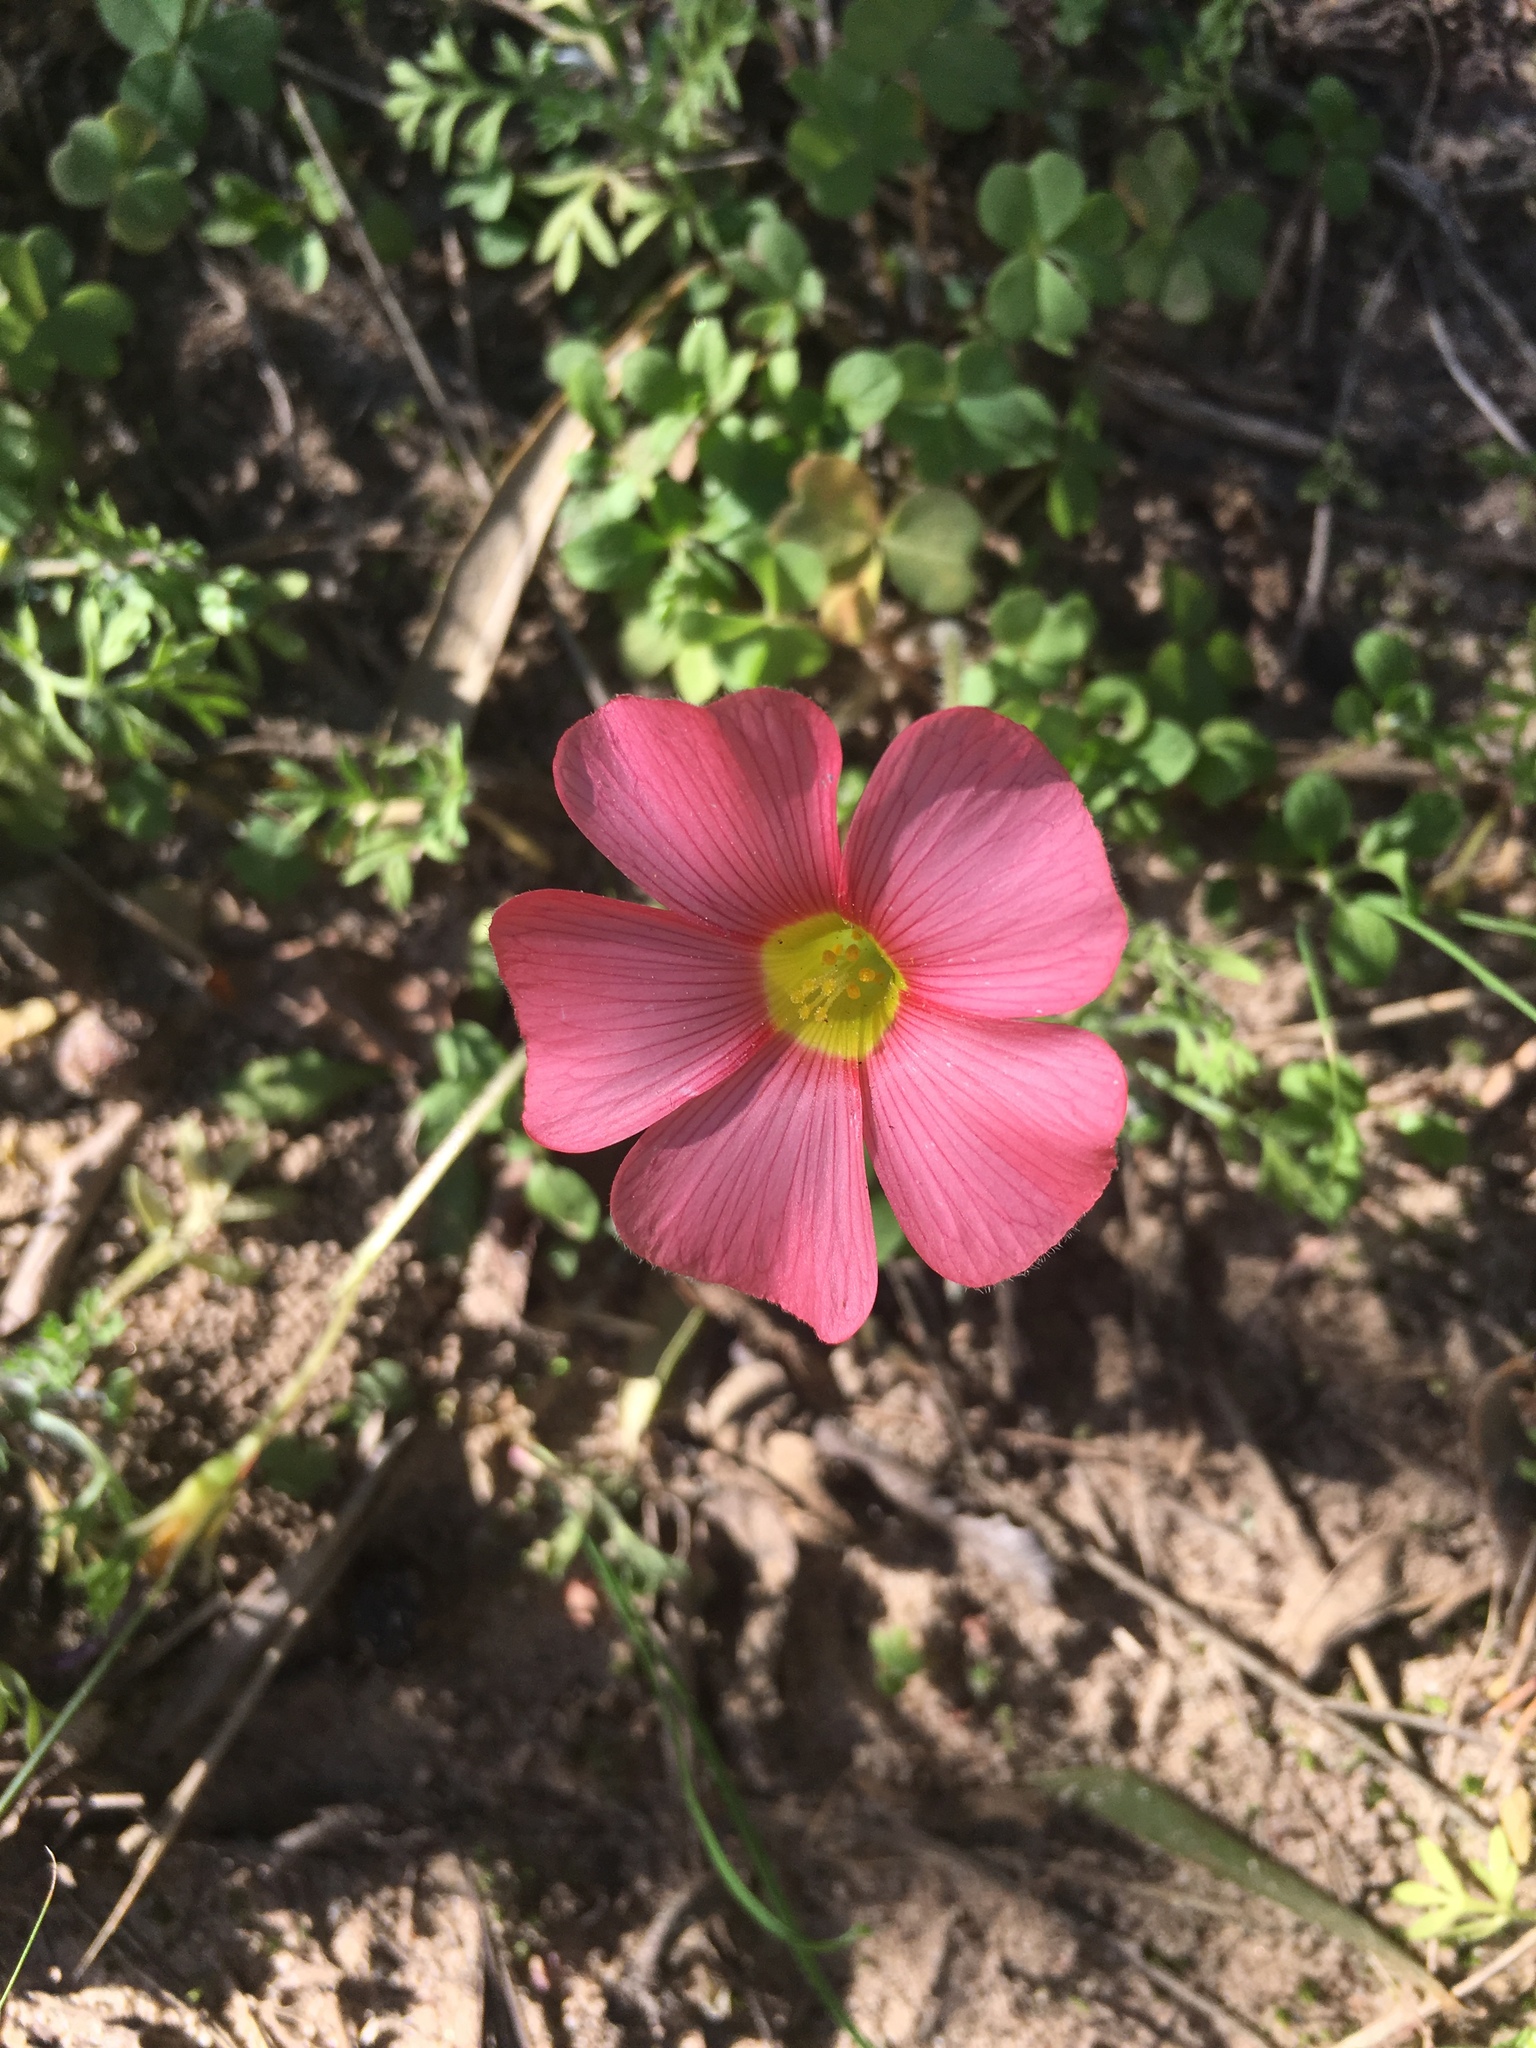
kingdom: Plantae
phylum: Tracheophyta
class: Magnoliopsida
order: Oxalidales
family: Oxalidaceae
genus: Oxalis
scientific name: Oxalis obtusa
